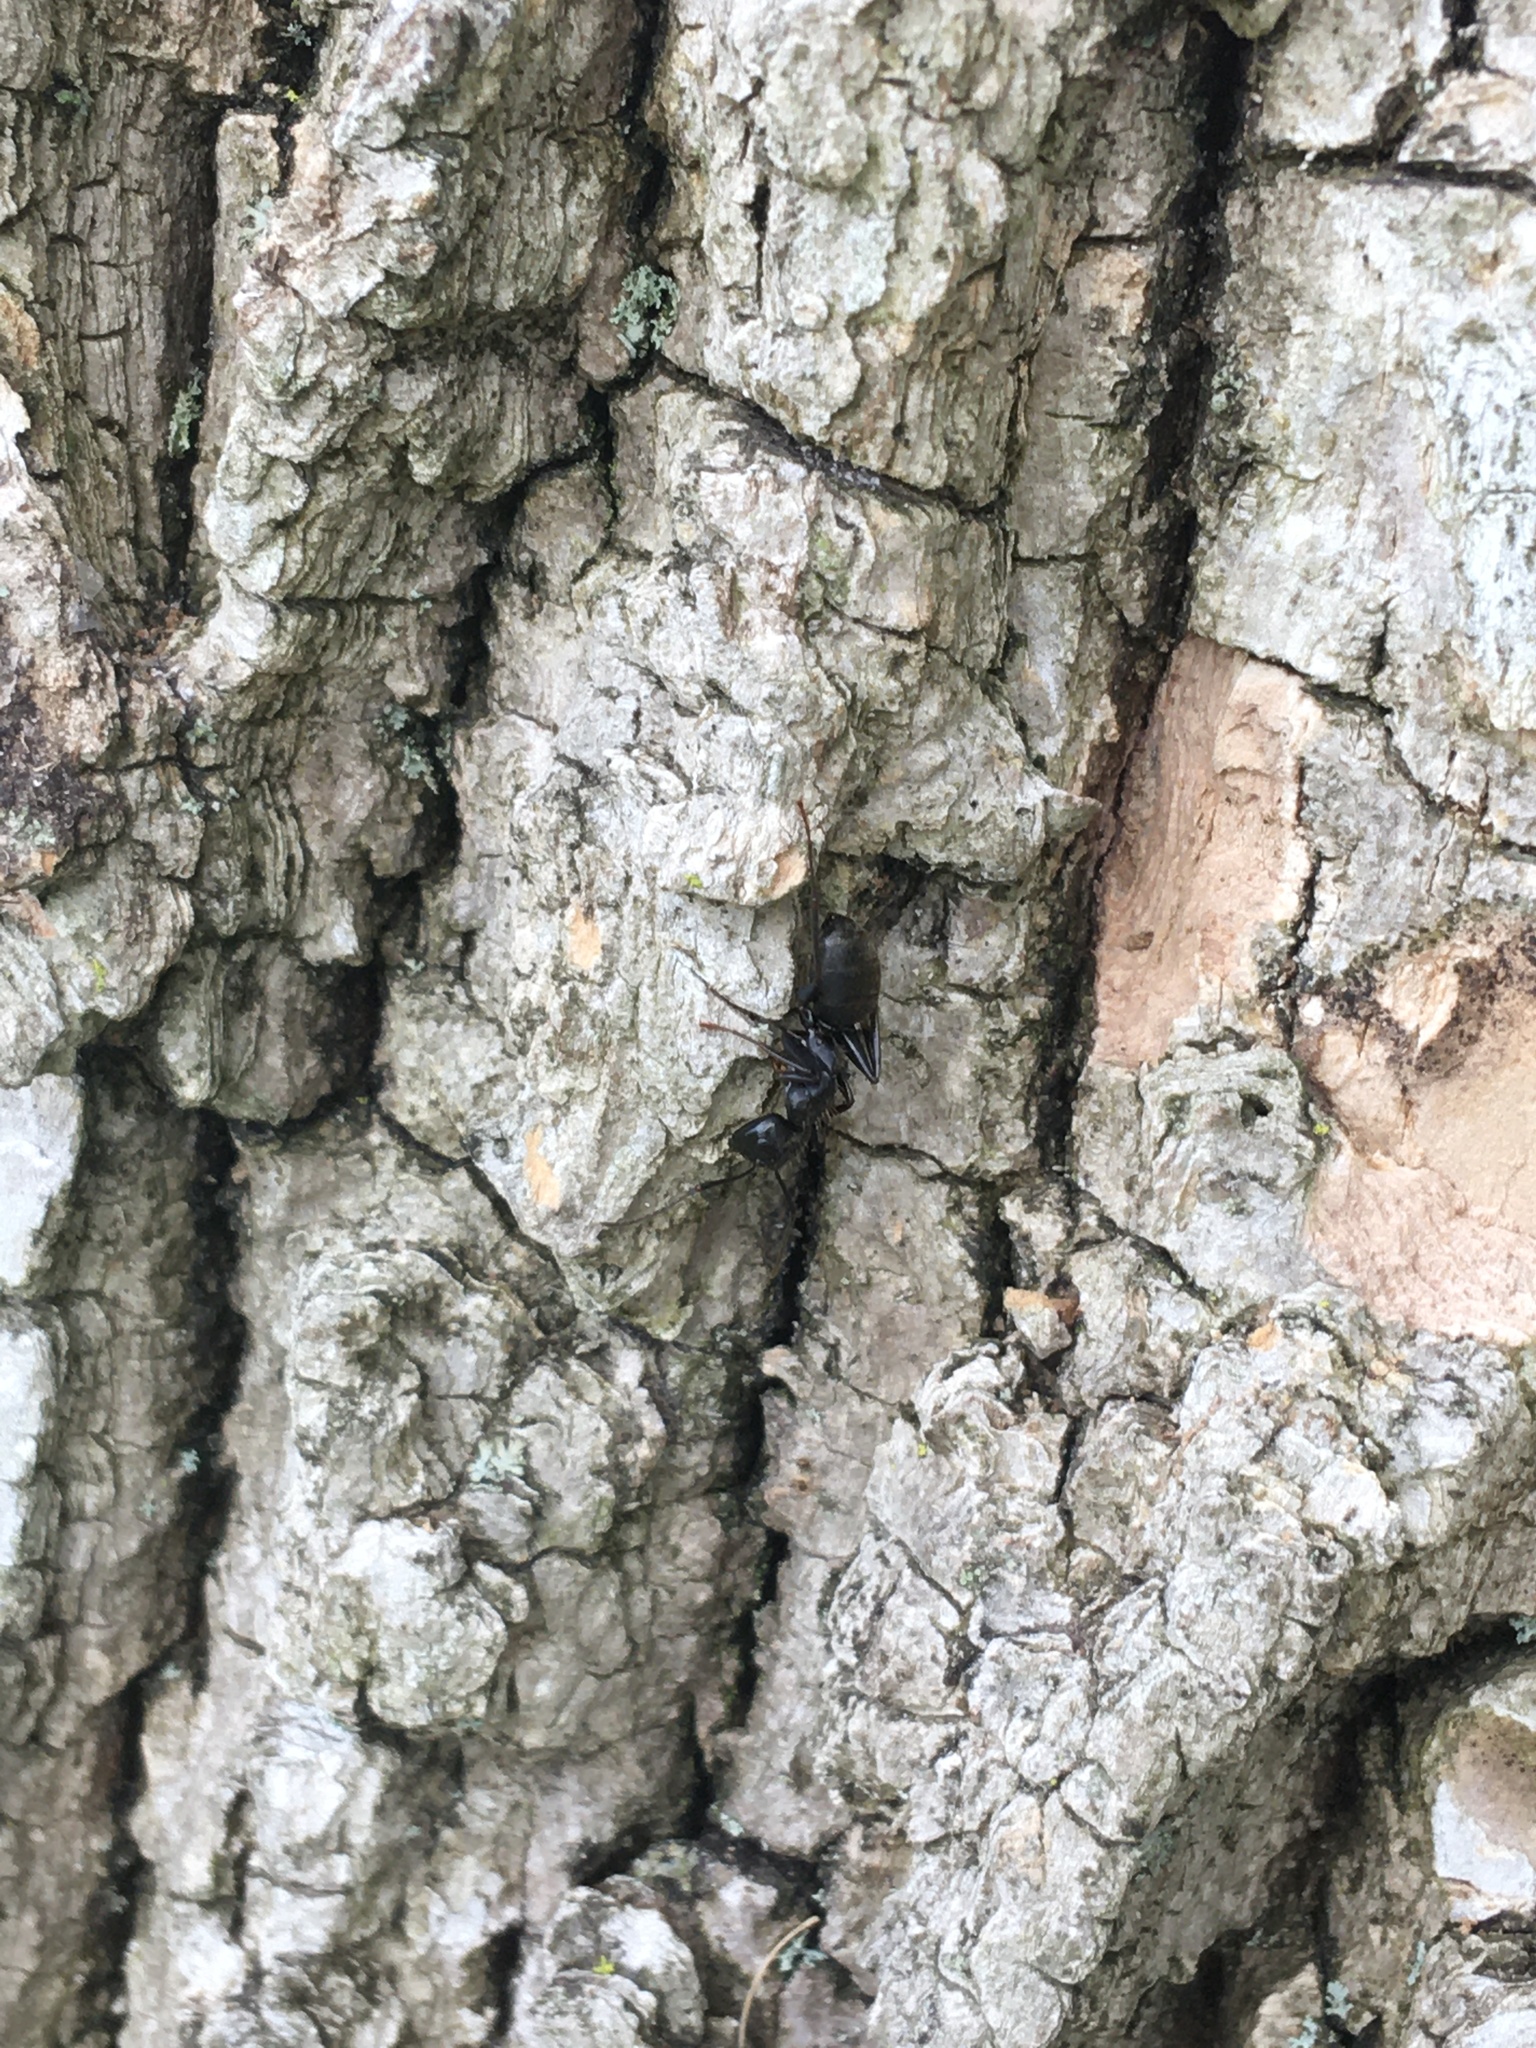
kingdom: Animalia
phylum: Arthropoda
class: Insecta
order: Hymenoptera
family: Formicidae
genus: Camponotus
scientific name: Camponotus pennsylvanicus
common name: Black carpenter ant
